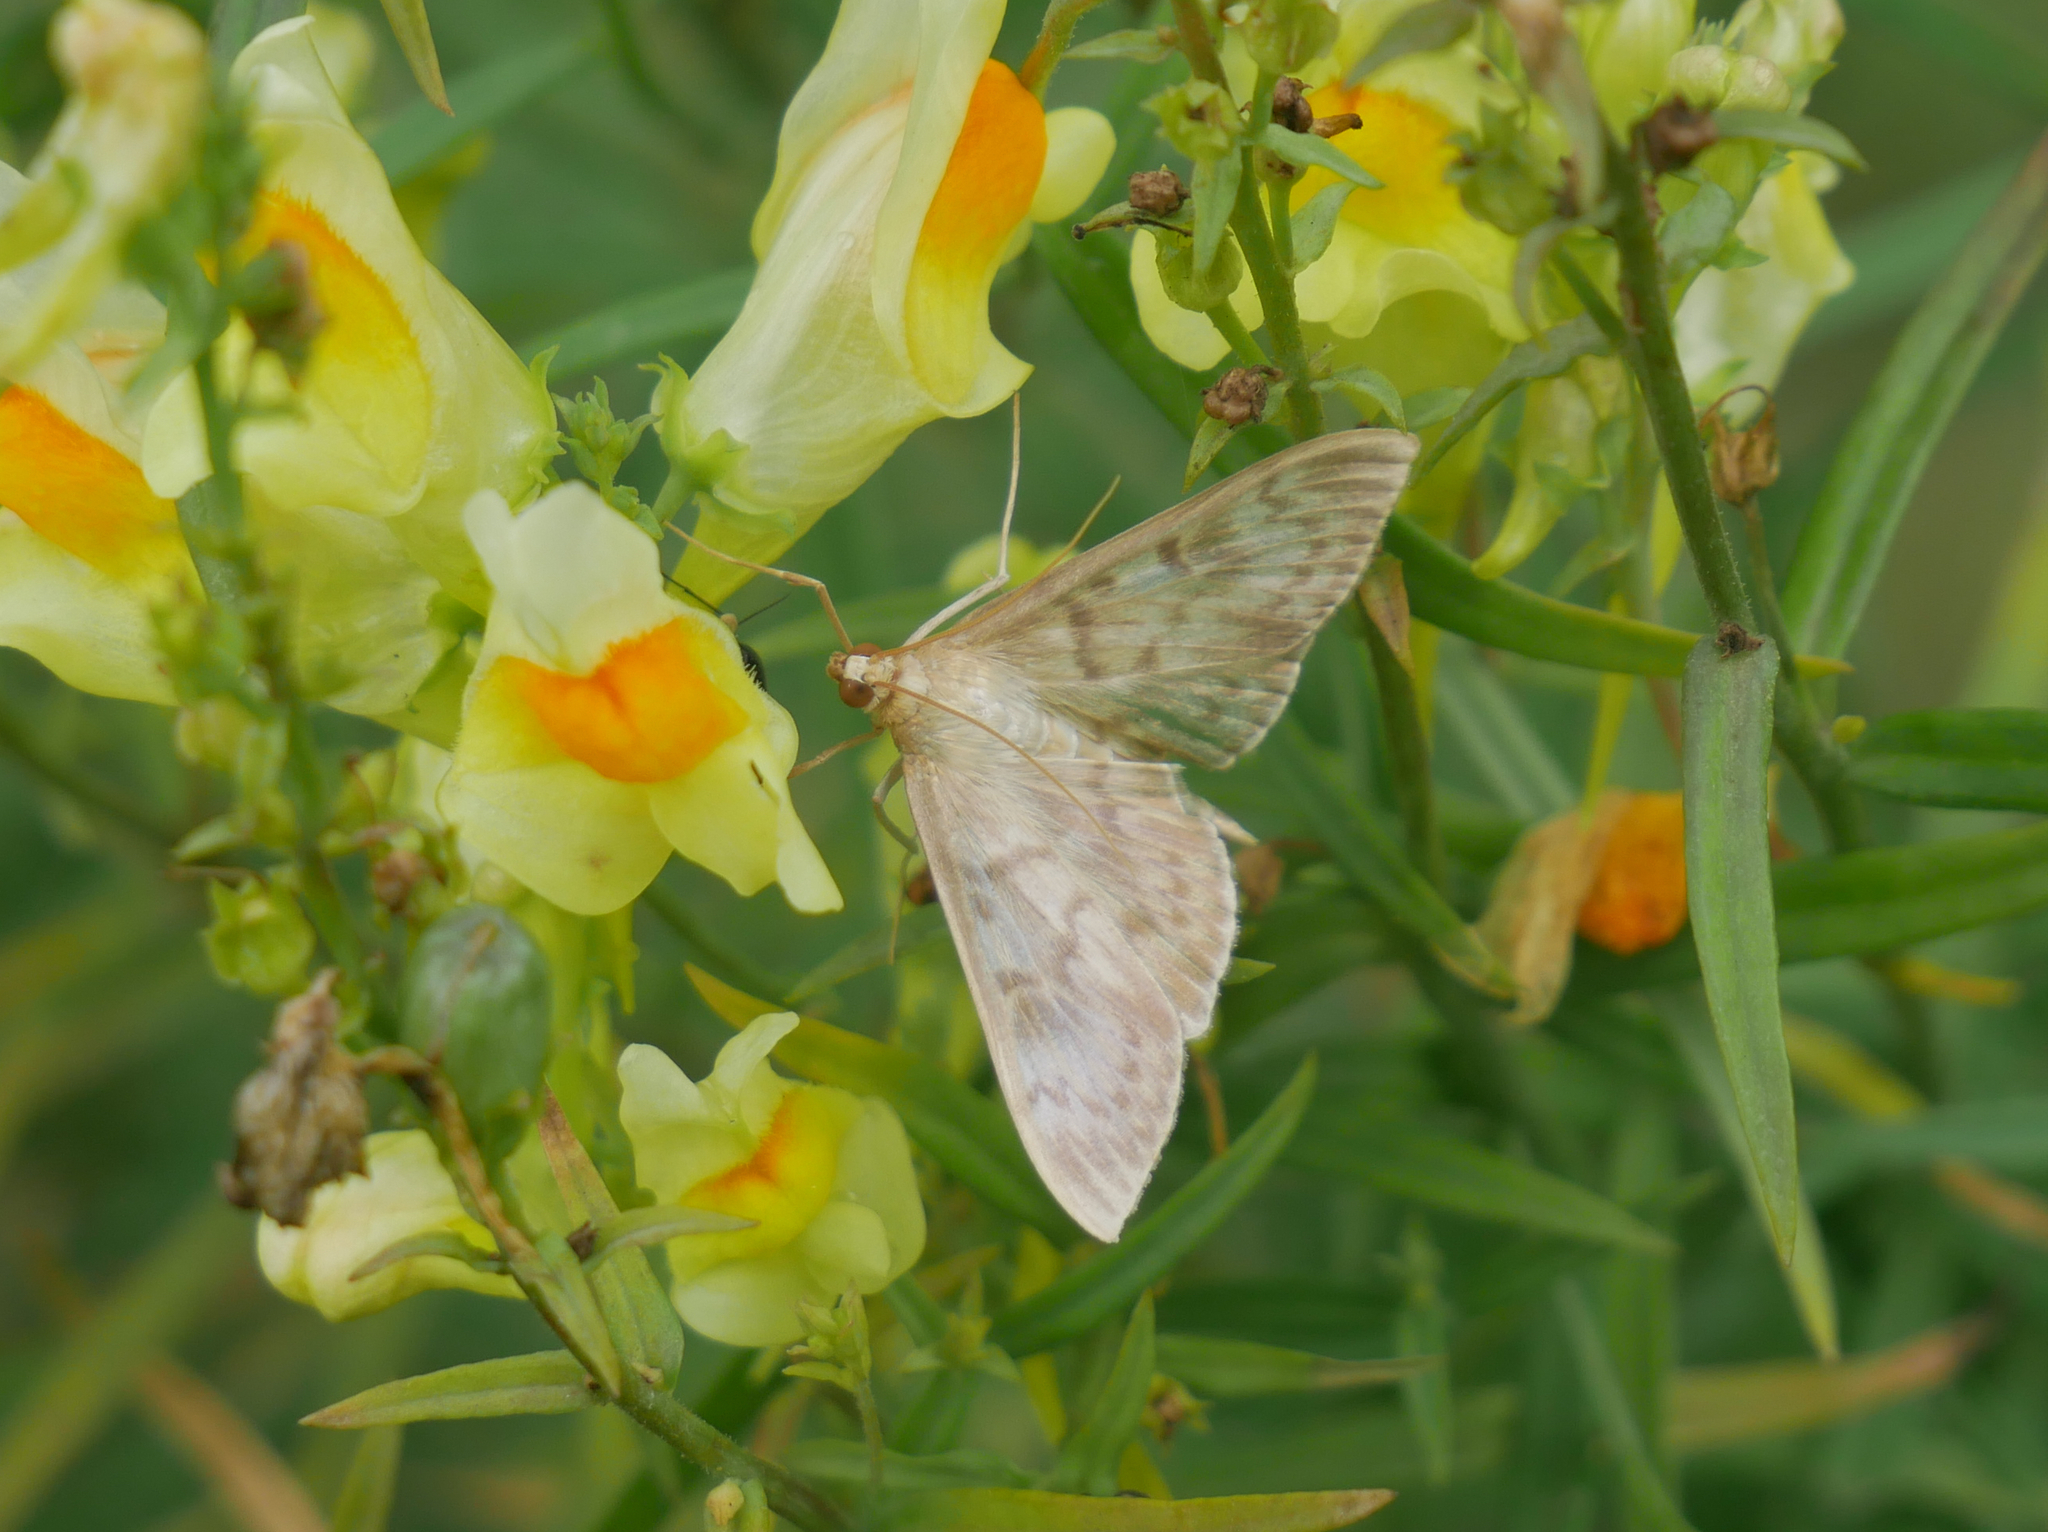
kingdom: Animalia
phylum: Arthropoda
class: Insecta
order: Lepidoptera
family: Crambidae
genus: Patania
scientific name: Patania ruralis
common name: Mother of pearl
